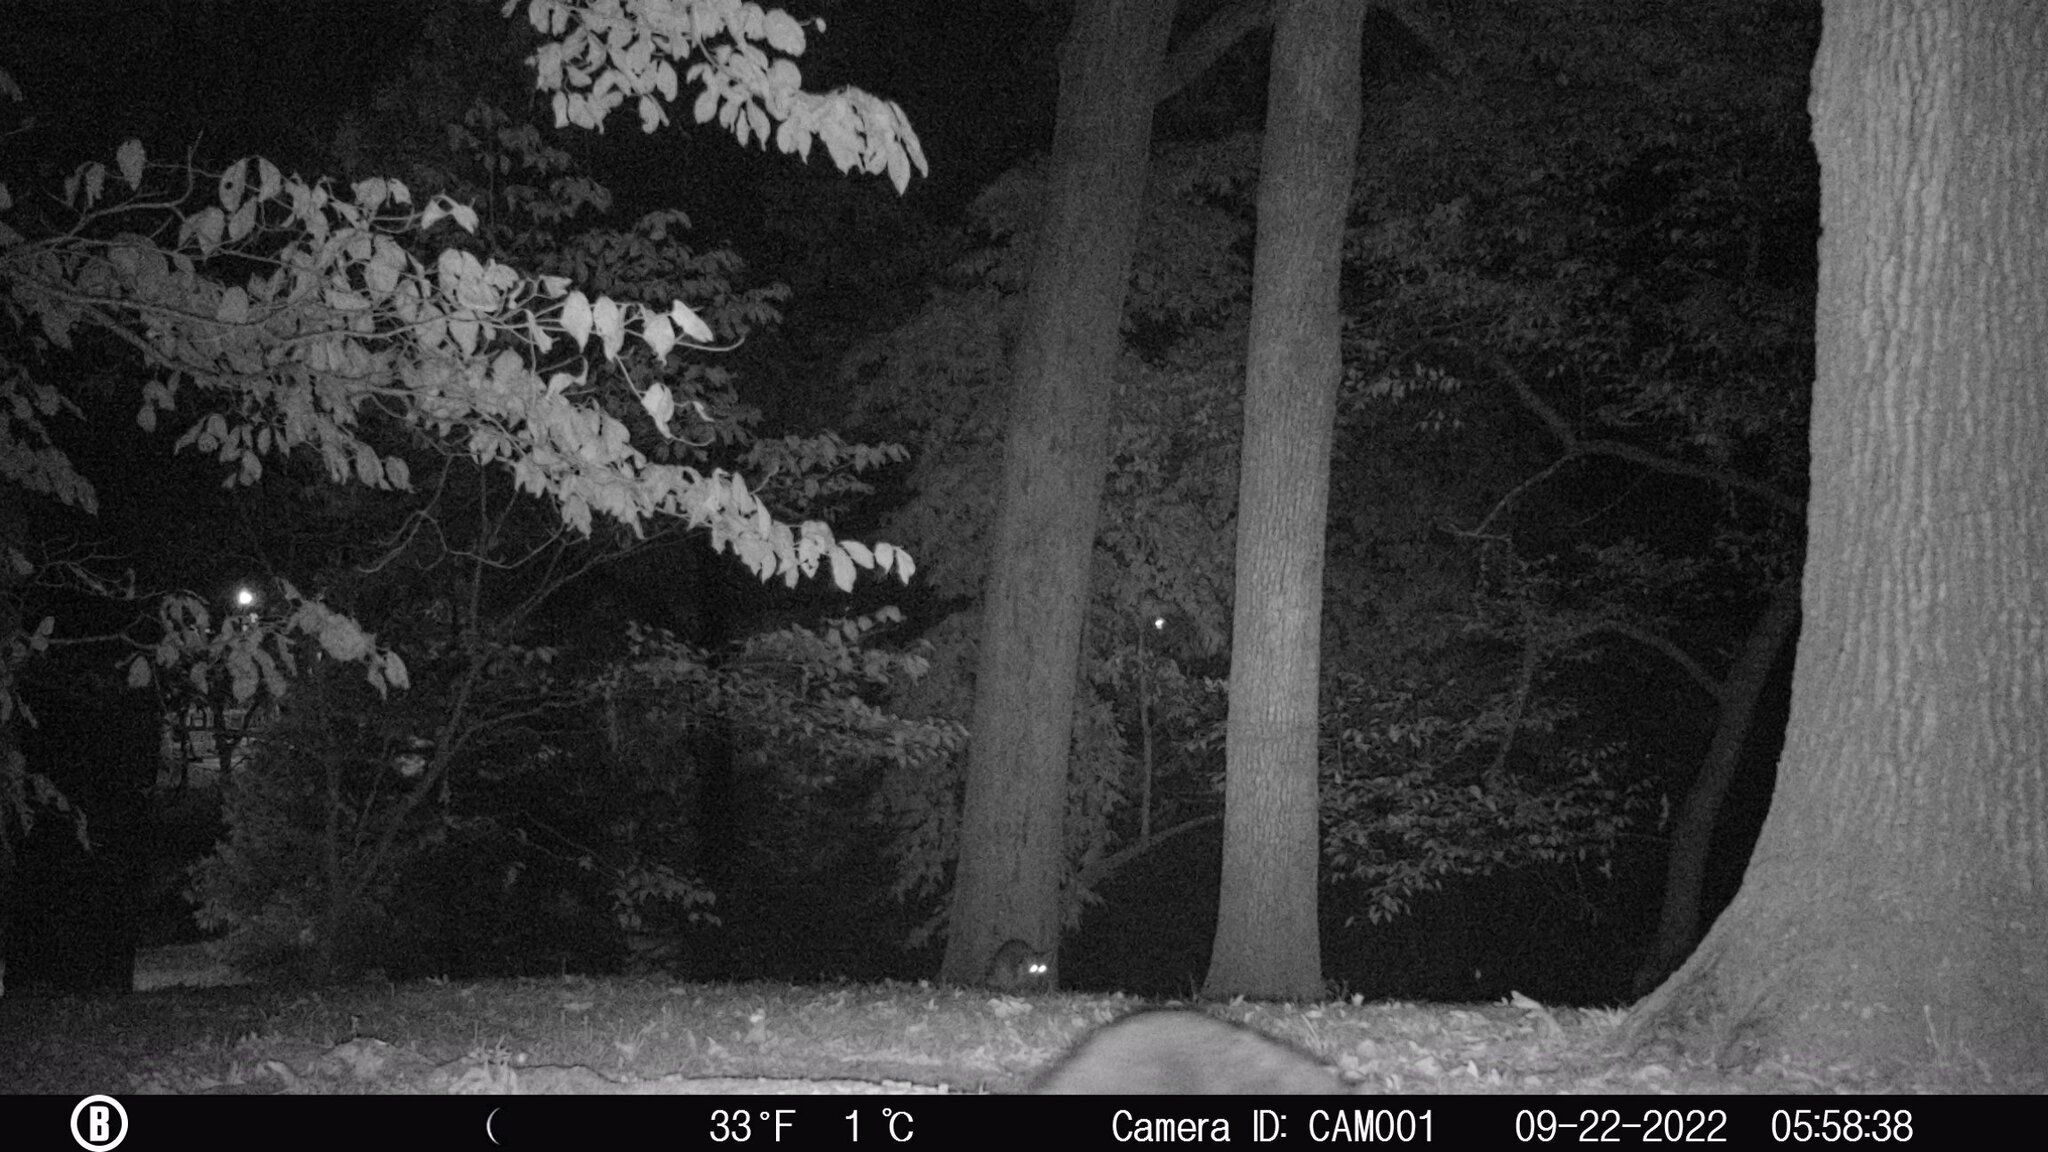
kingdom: Animalia
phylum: Chordata
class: Mammalia
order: Carnivora
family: Procyonidae
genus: Procyon
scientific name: Procyon lotor
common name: Raccoon
